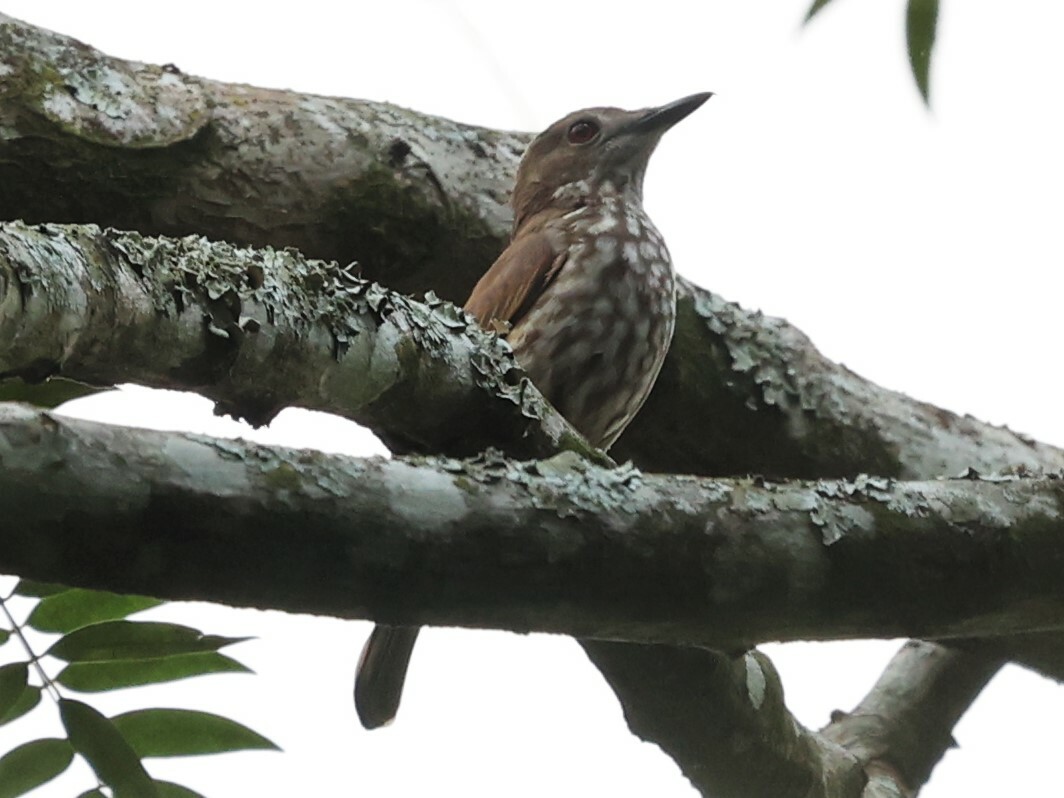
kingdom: Animalia
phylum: Chordata
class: Aves
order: Passeriformes
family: Platysteiridae
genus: Megabyas
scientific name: Megabyas flammulatus
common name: African shrike-flycatcher
